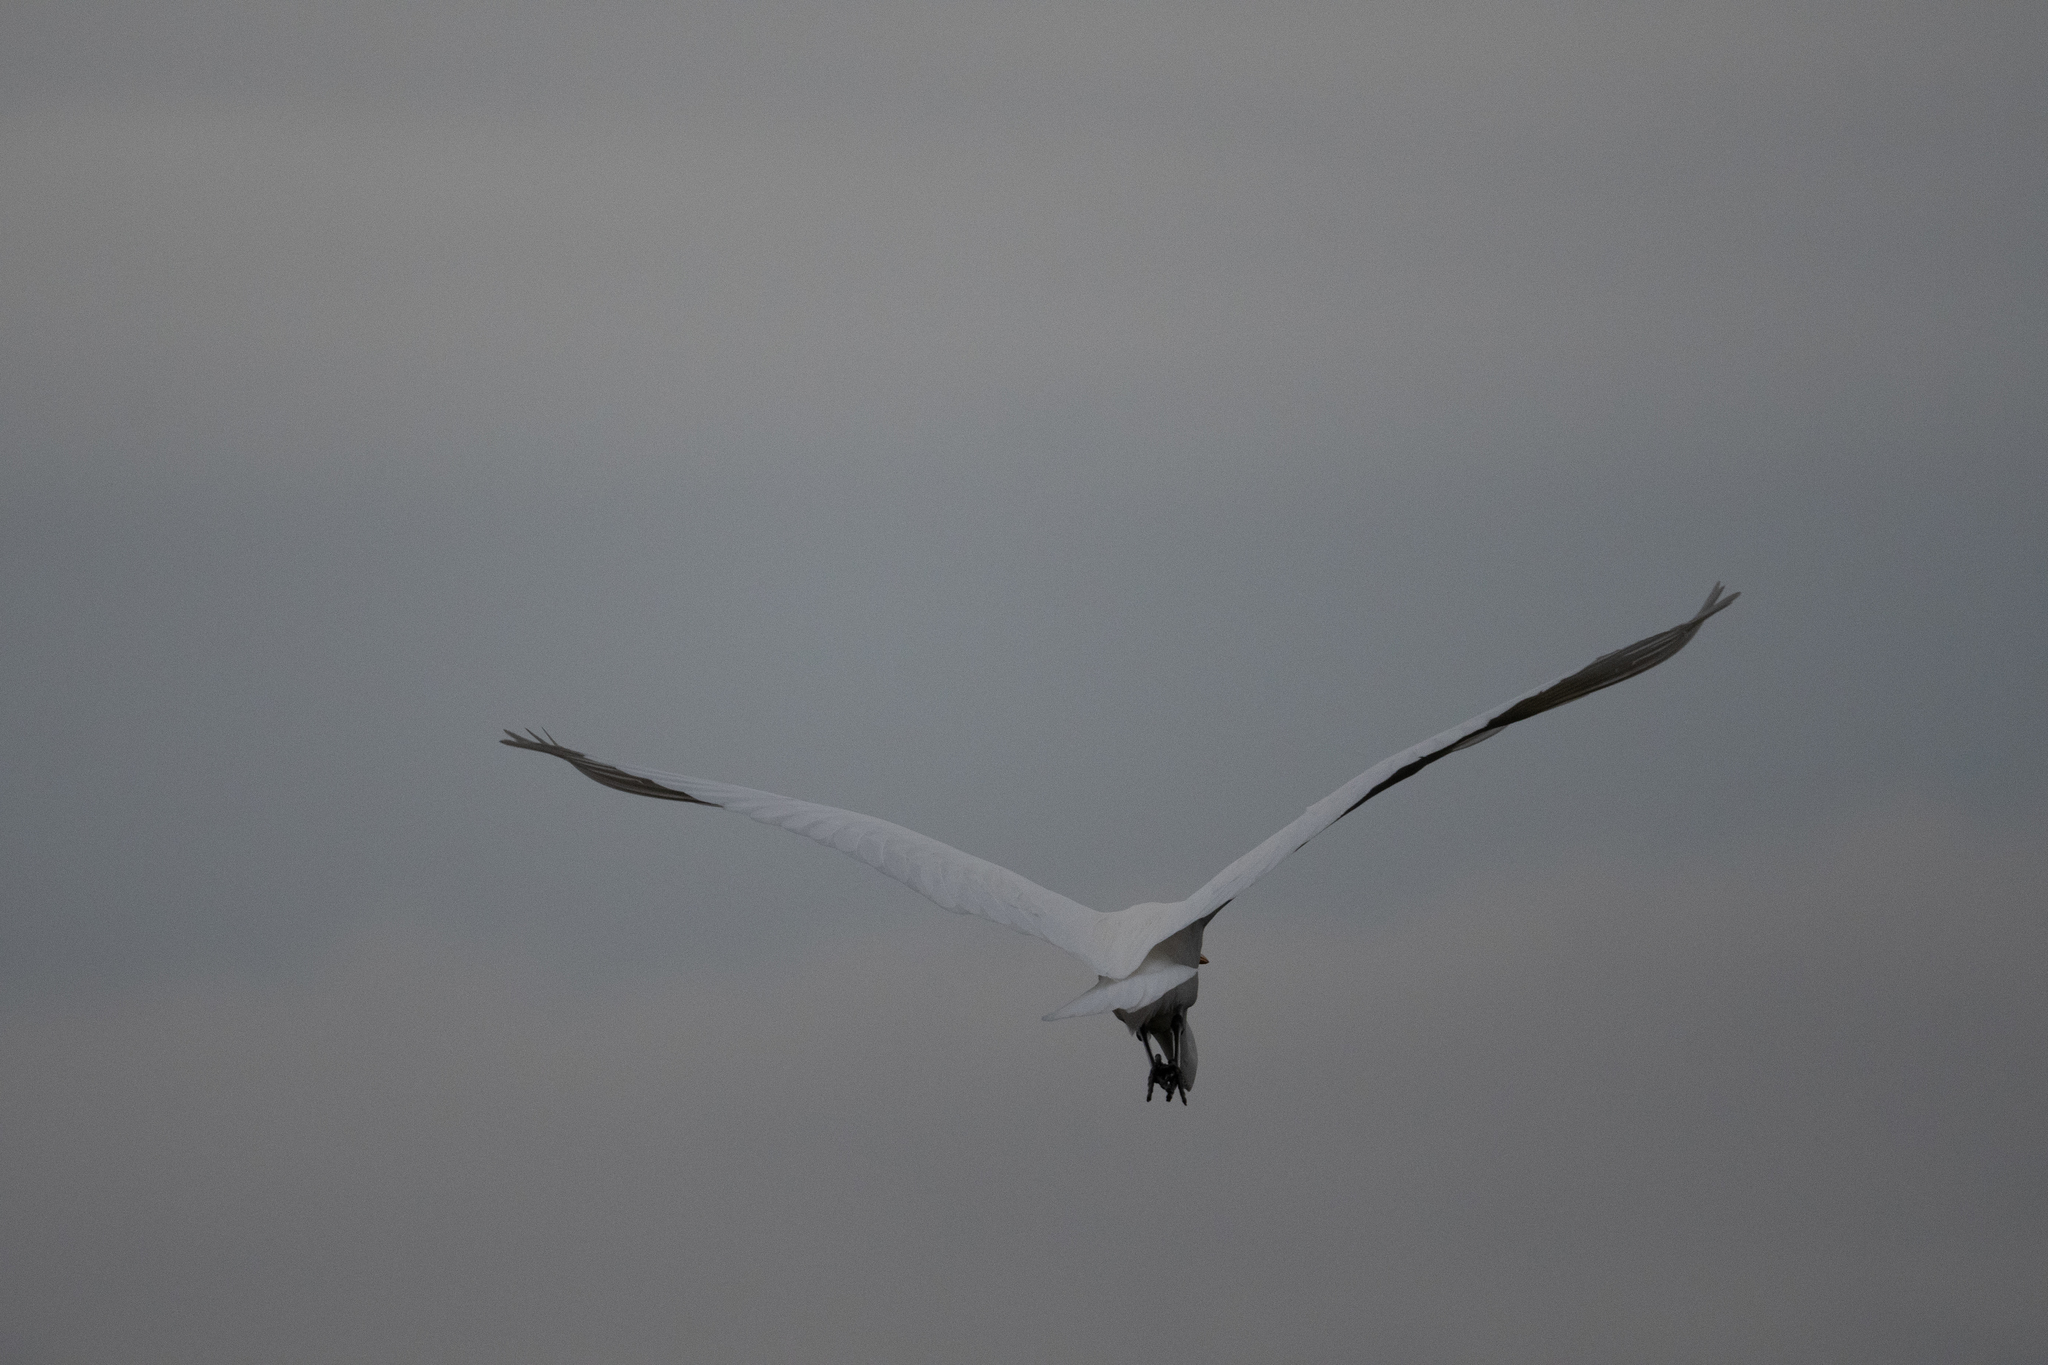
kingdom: Animalia
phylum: Chordata
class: Aves
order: Pelecaniformes
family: Ardeidae
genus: Ardea
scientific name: Ardea alba
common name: Great egret
